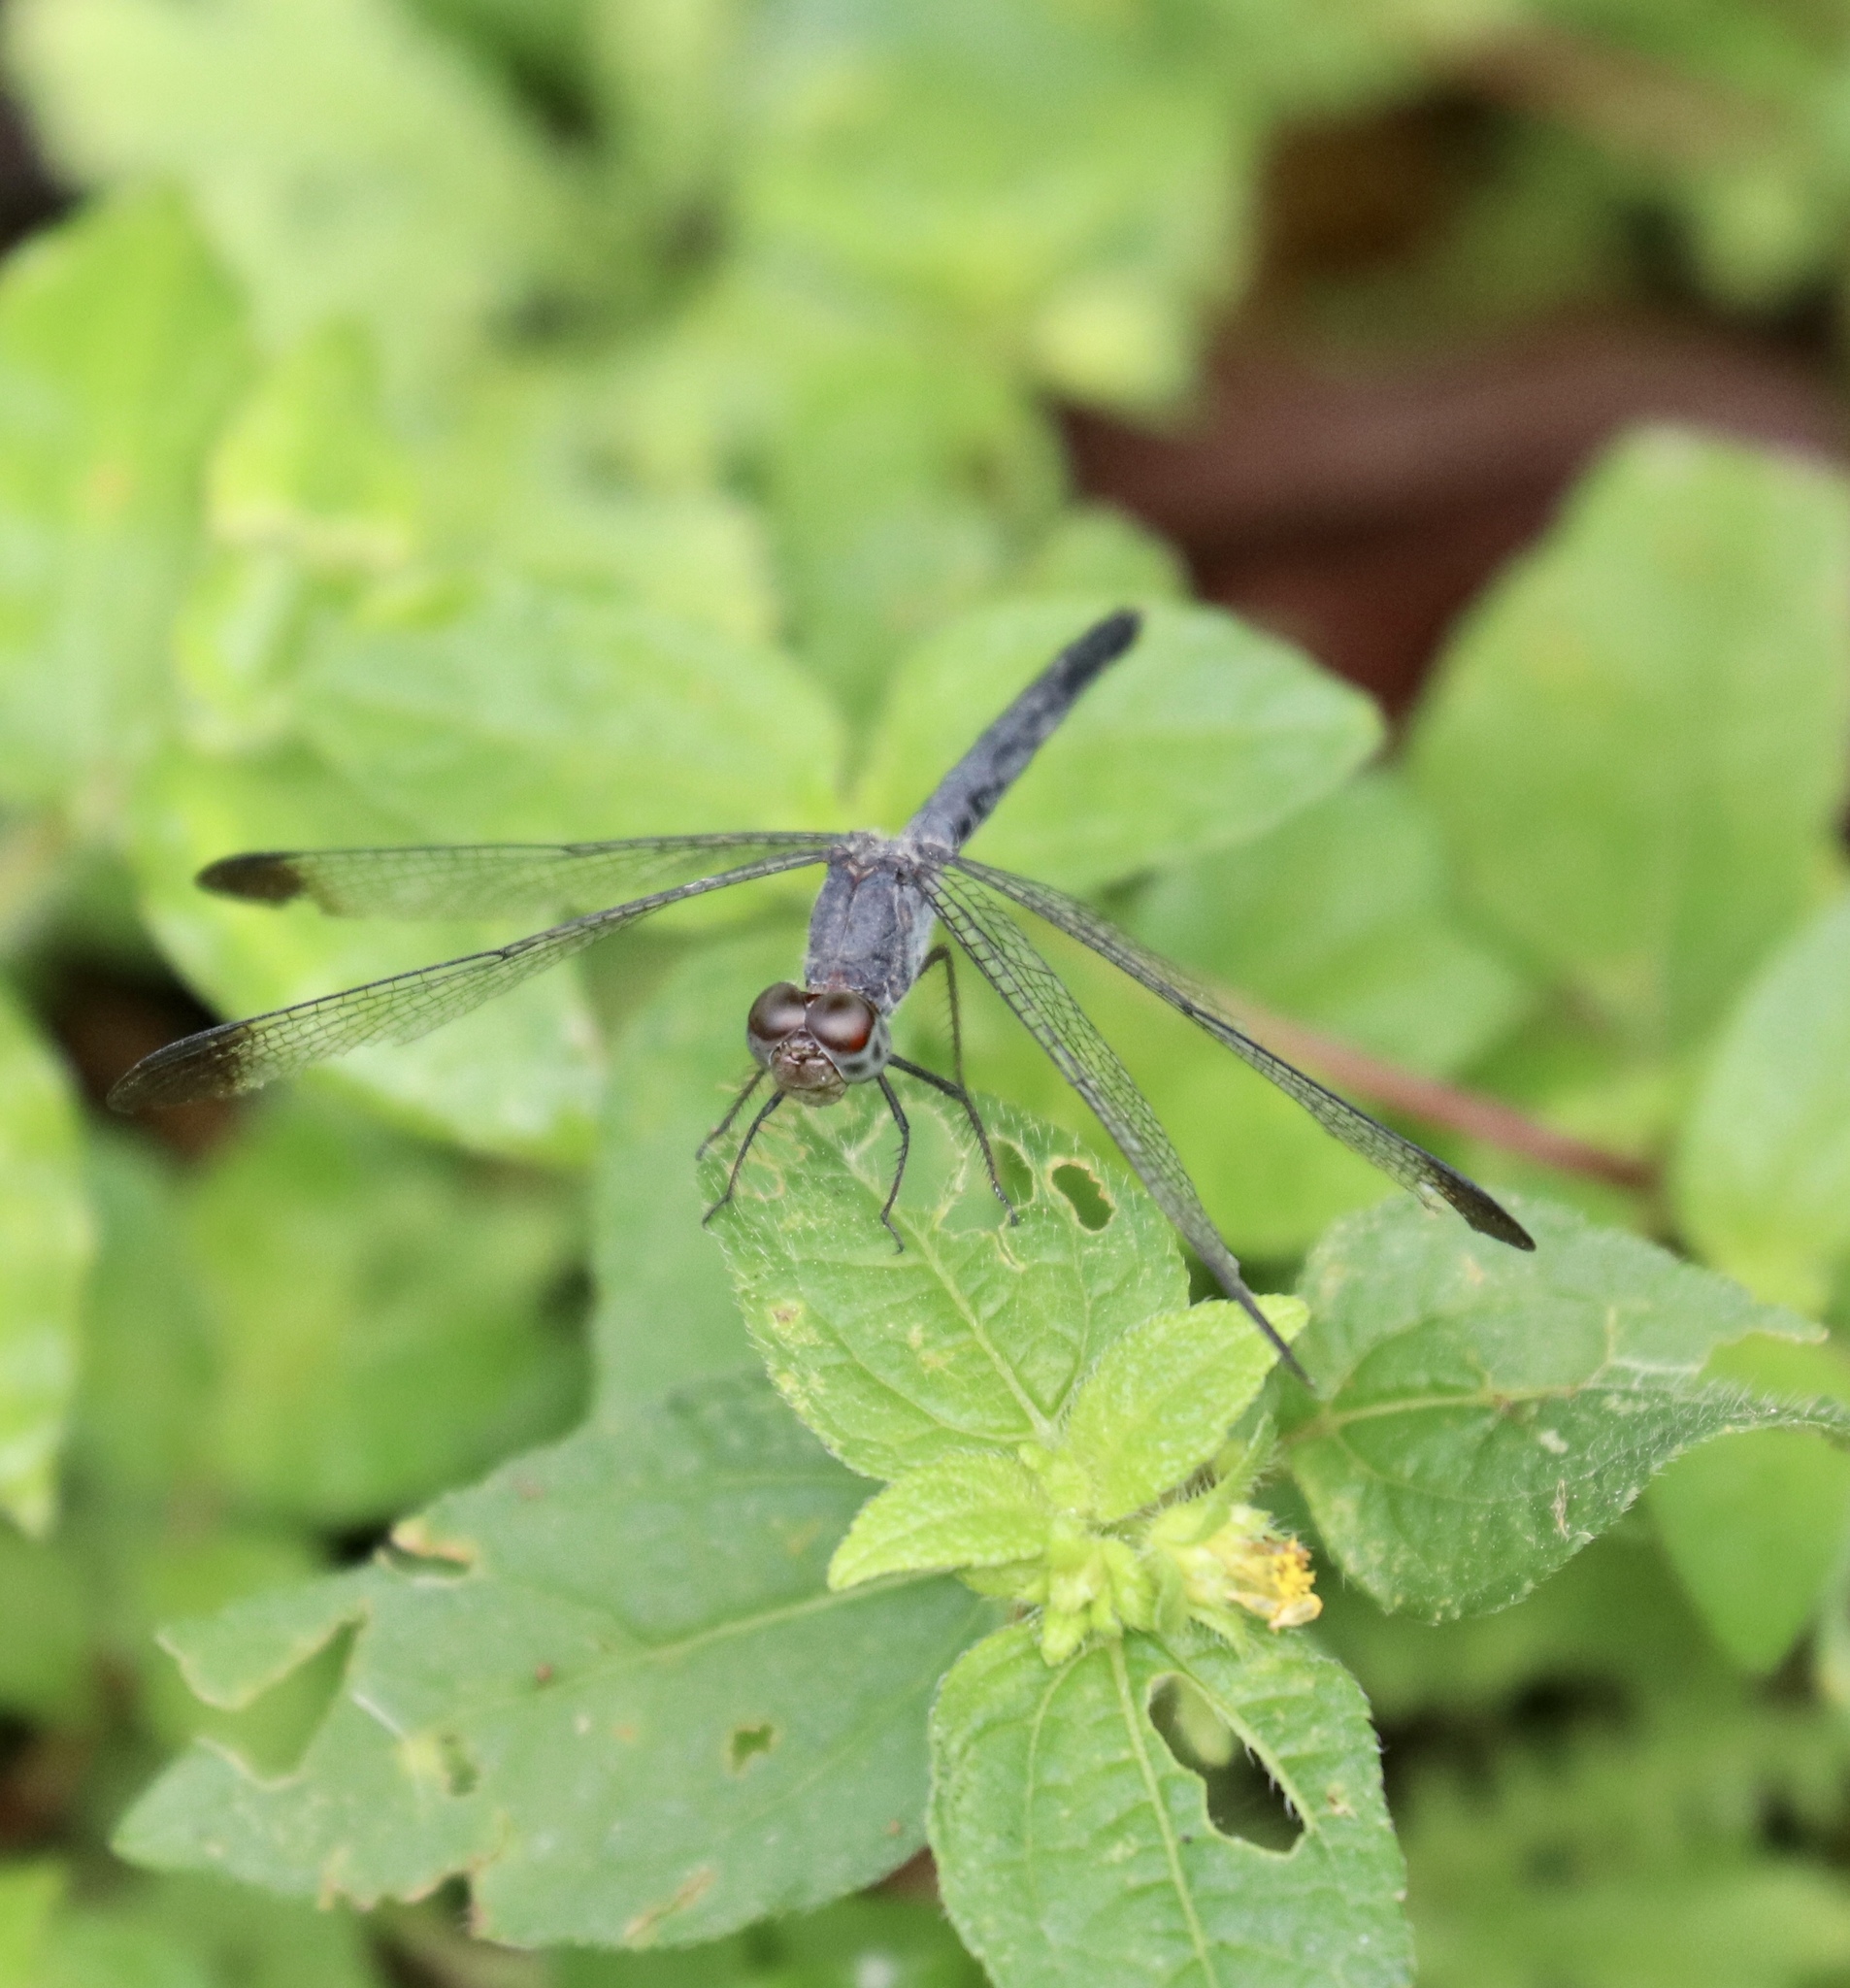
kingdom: Animalia
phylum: Arthropoda
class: Insecta
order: Odonata
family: Libellulidae
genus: Uracis
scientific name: Uracis imbuta
